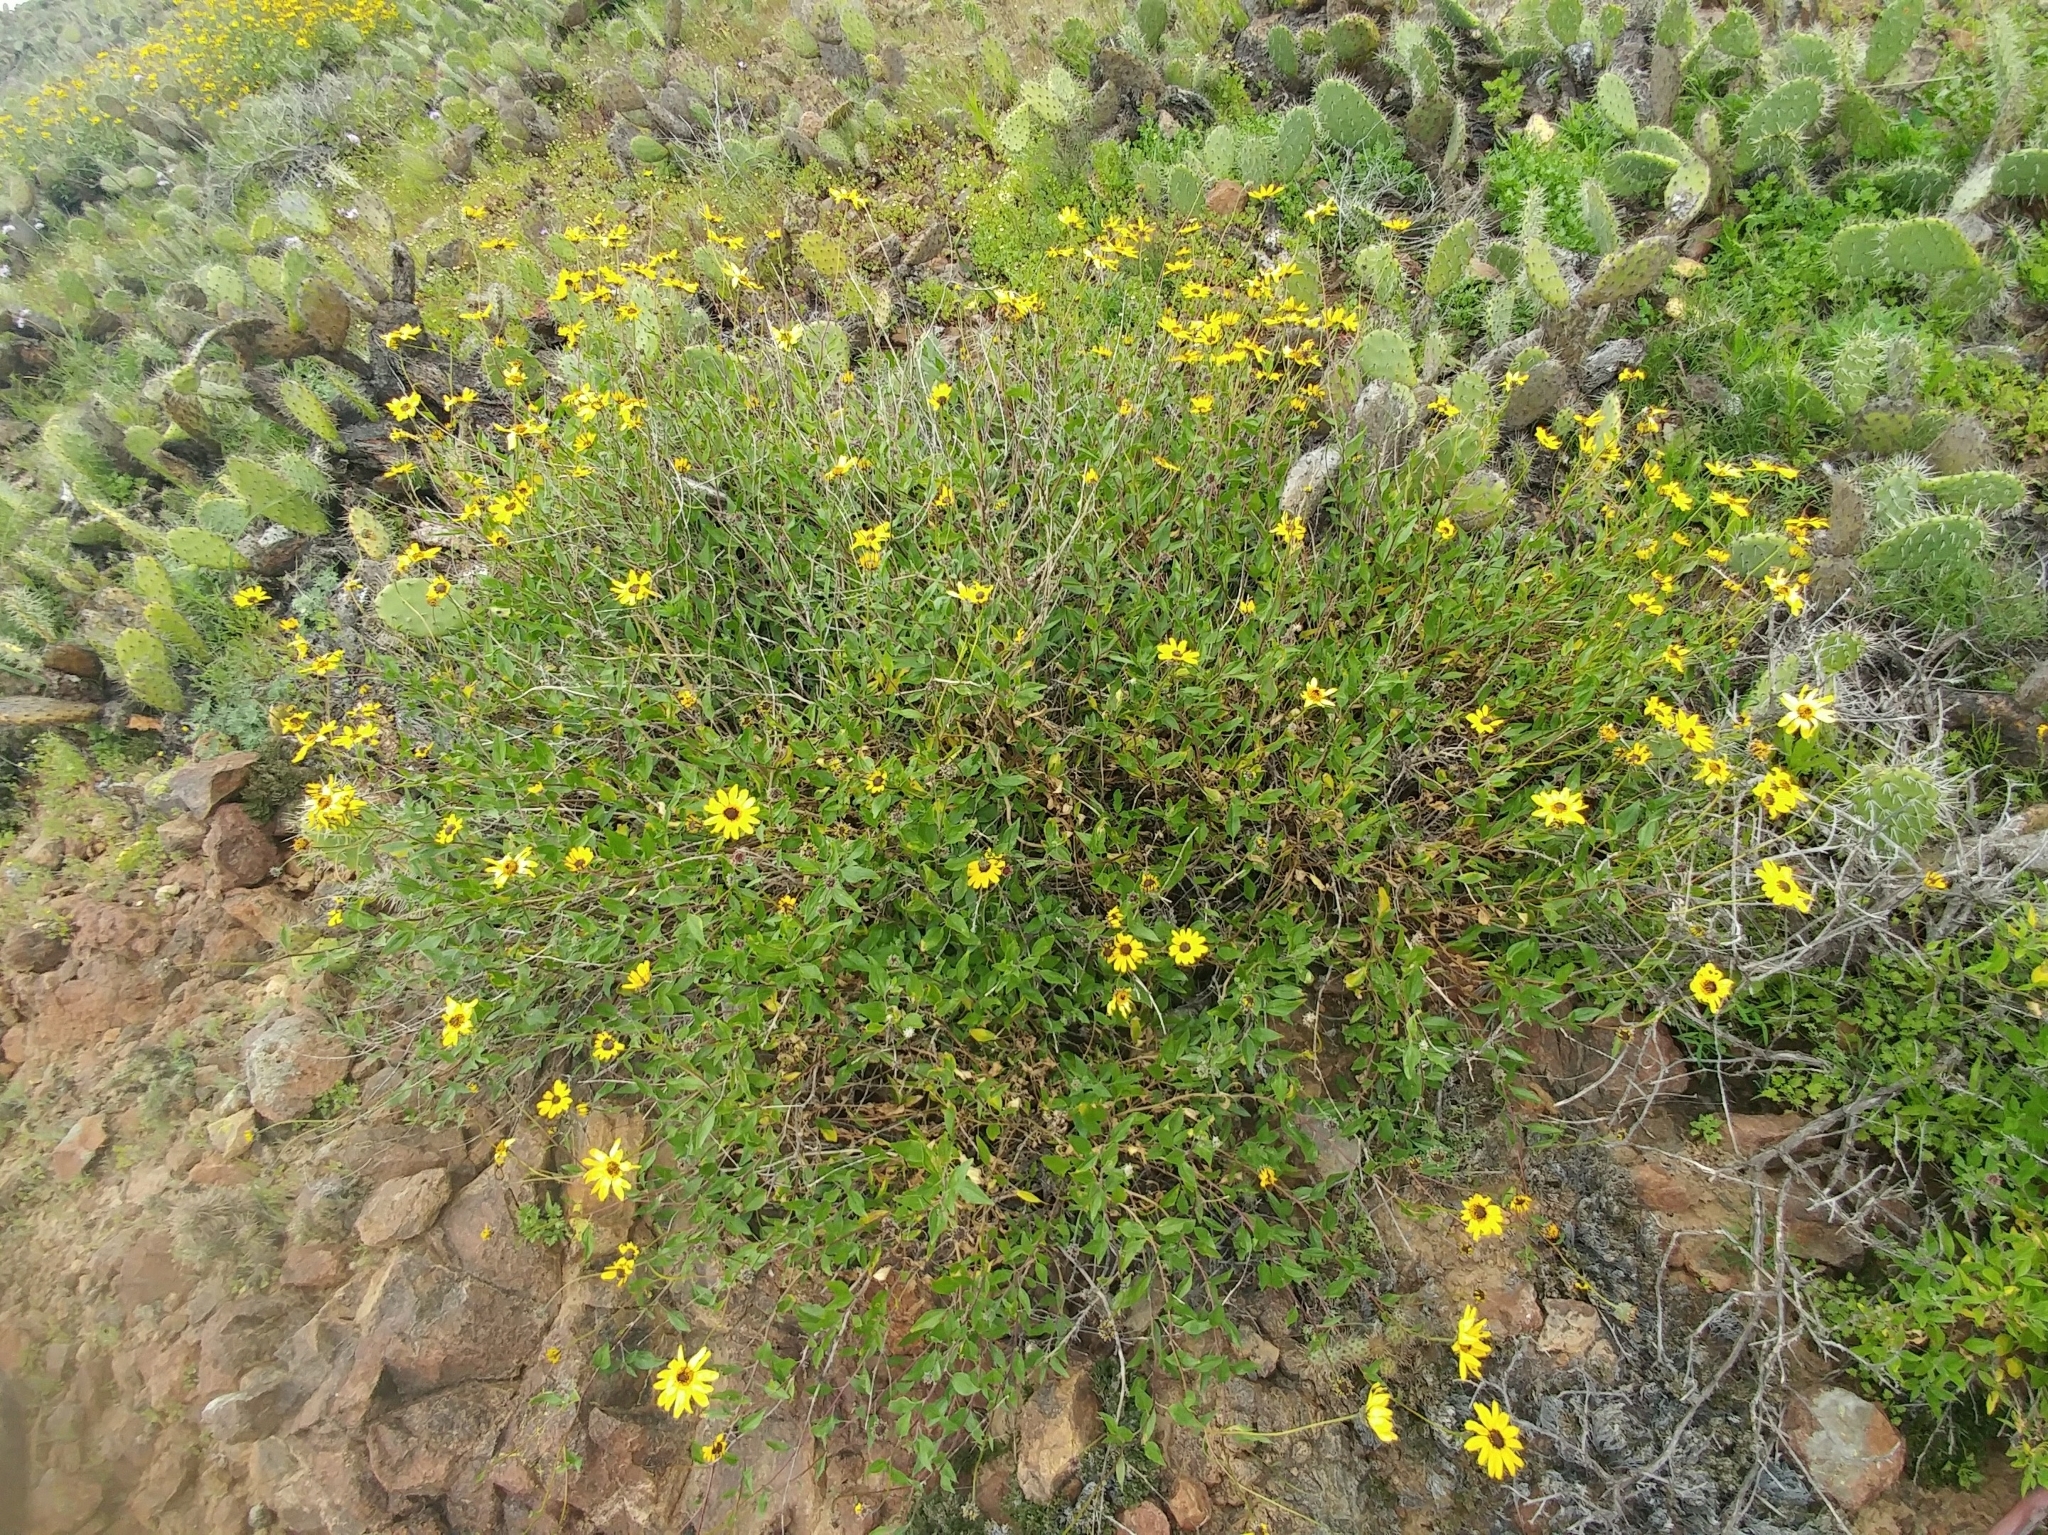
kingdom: Plantae
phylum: Tracheophyta
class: Magnoliopsida
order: Asterales
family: Asteraceae
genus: Encelia
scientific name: Encelia californica
